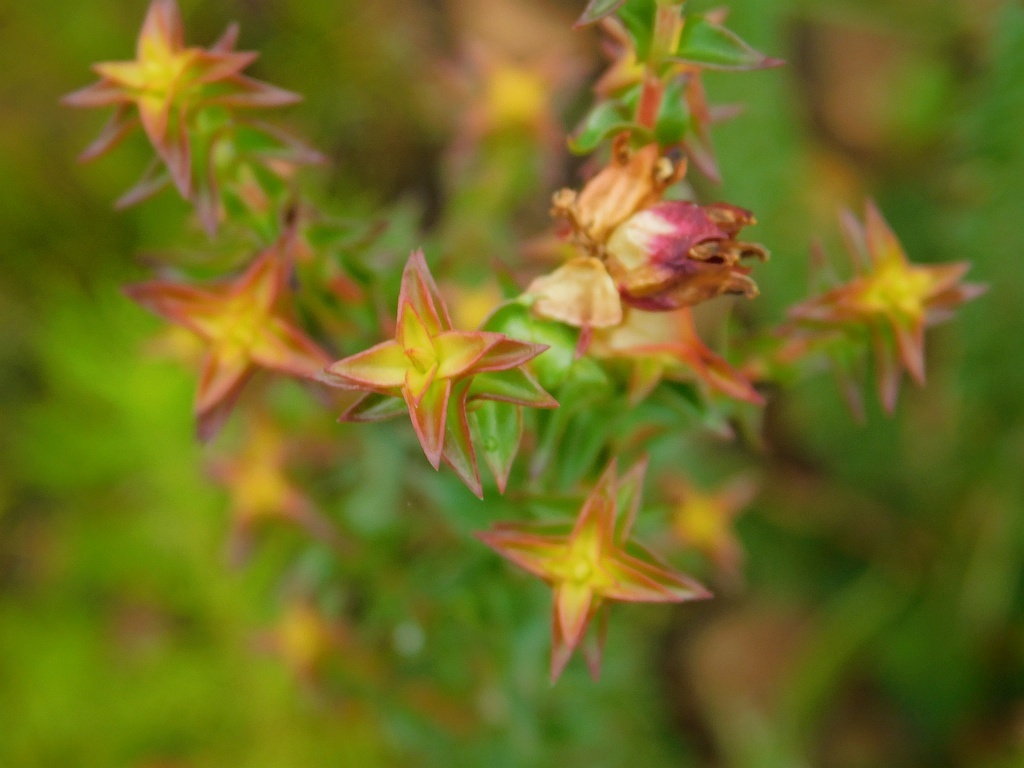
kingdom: Plantae
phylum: Tracheophyta
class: Magnoliopsida
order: Myrtales
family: Penaeaceae
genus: Penaea
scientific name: Penaea mucronata
